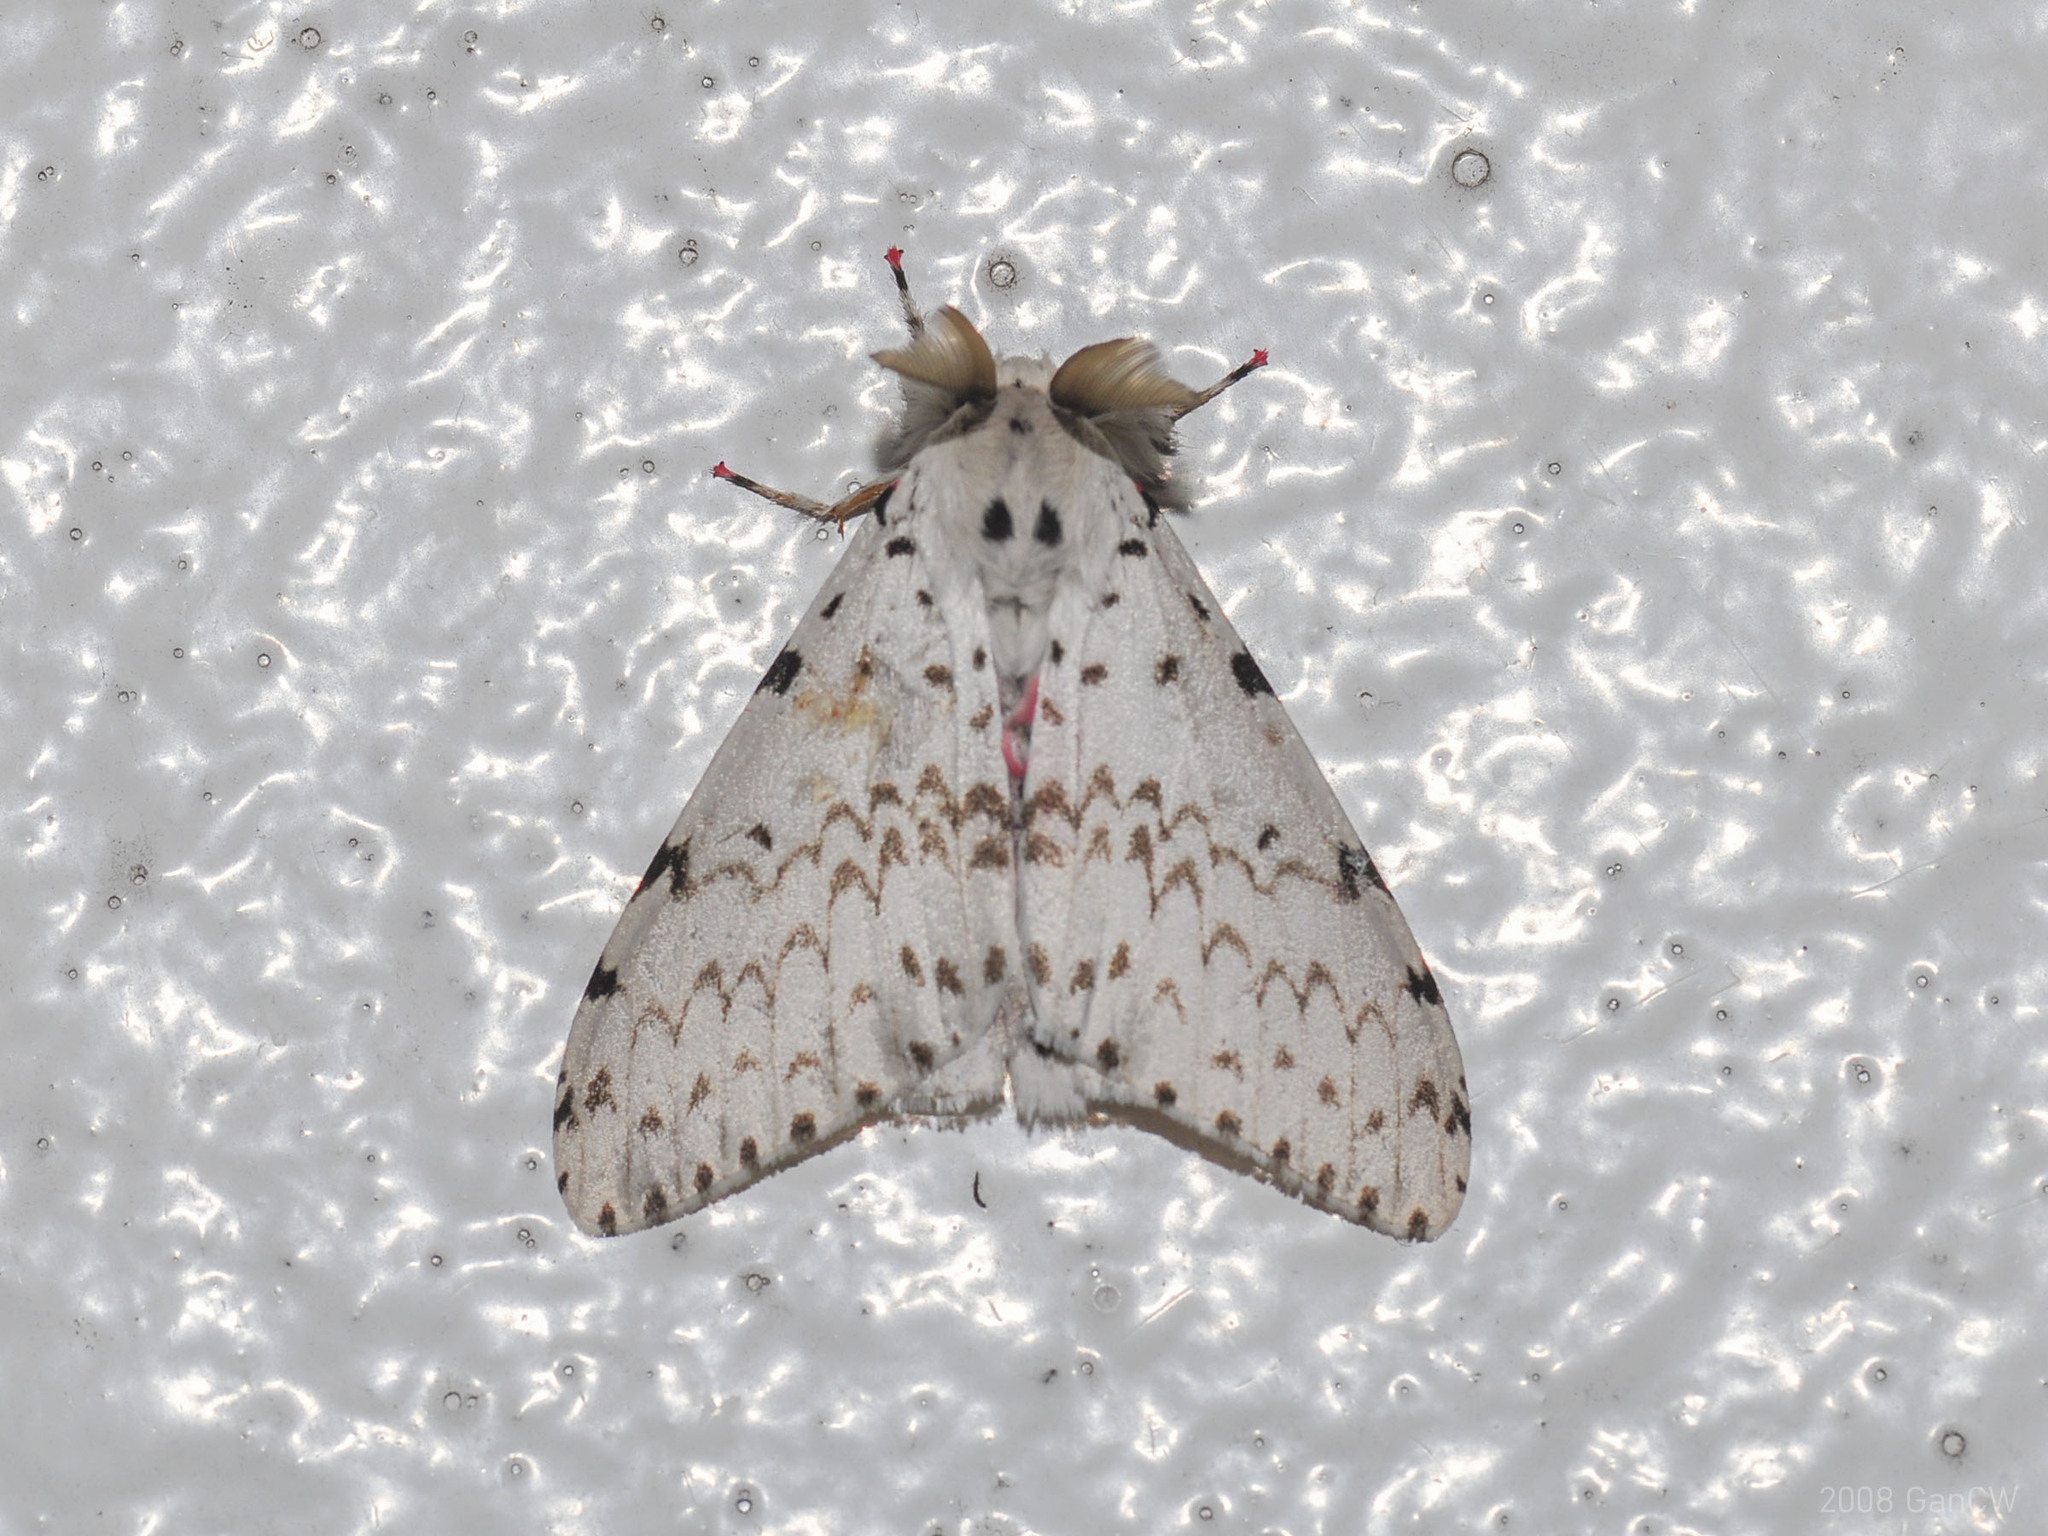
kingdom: Animalia
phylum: Arthropoda
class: Insecta
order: Lepidoptera
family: Erebidae
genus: Lymantria
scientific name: Lymantria marginalis
